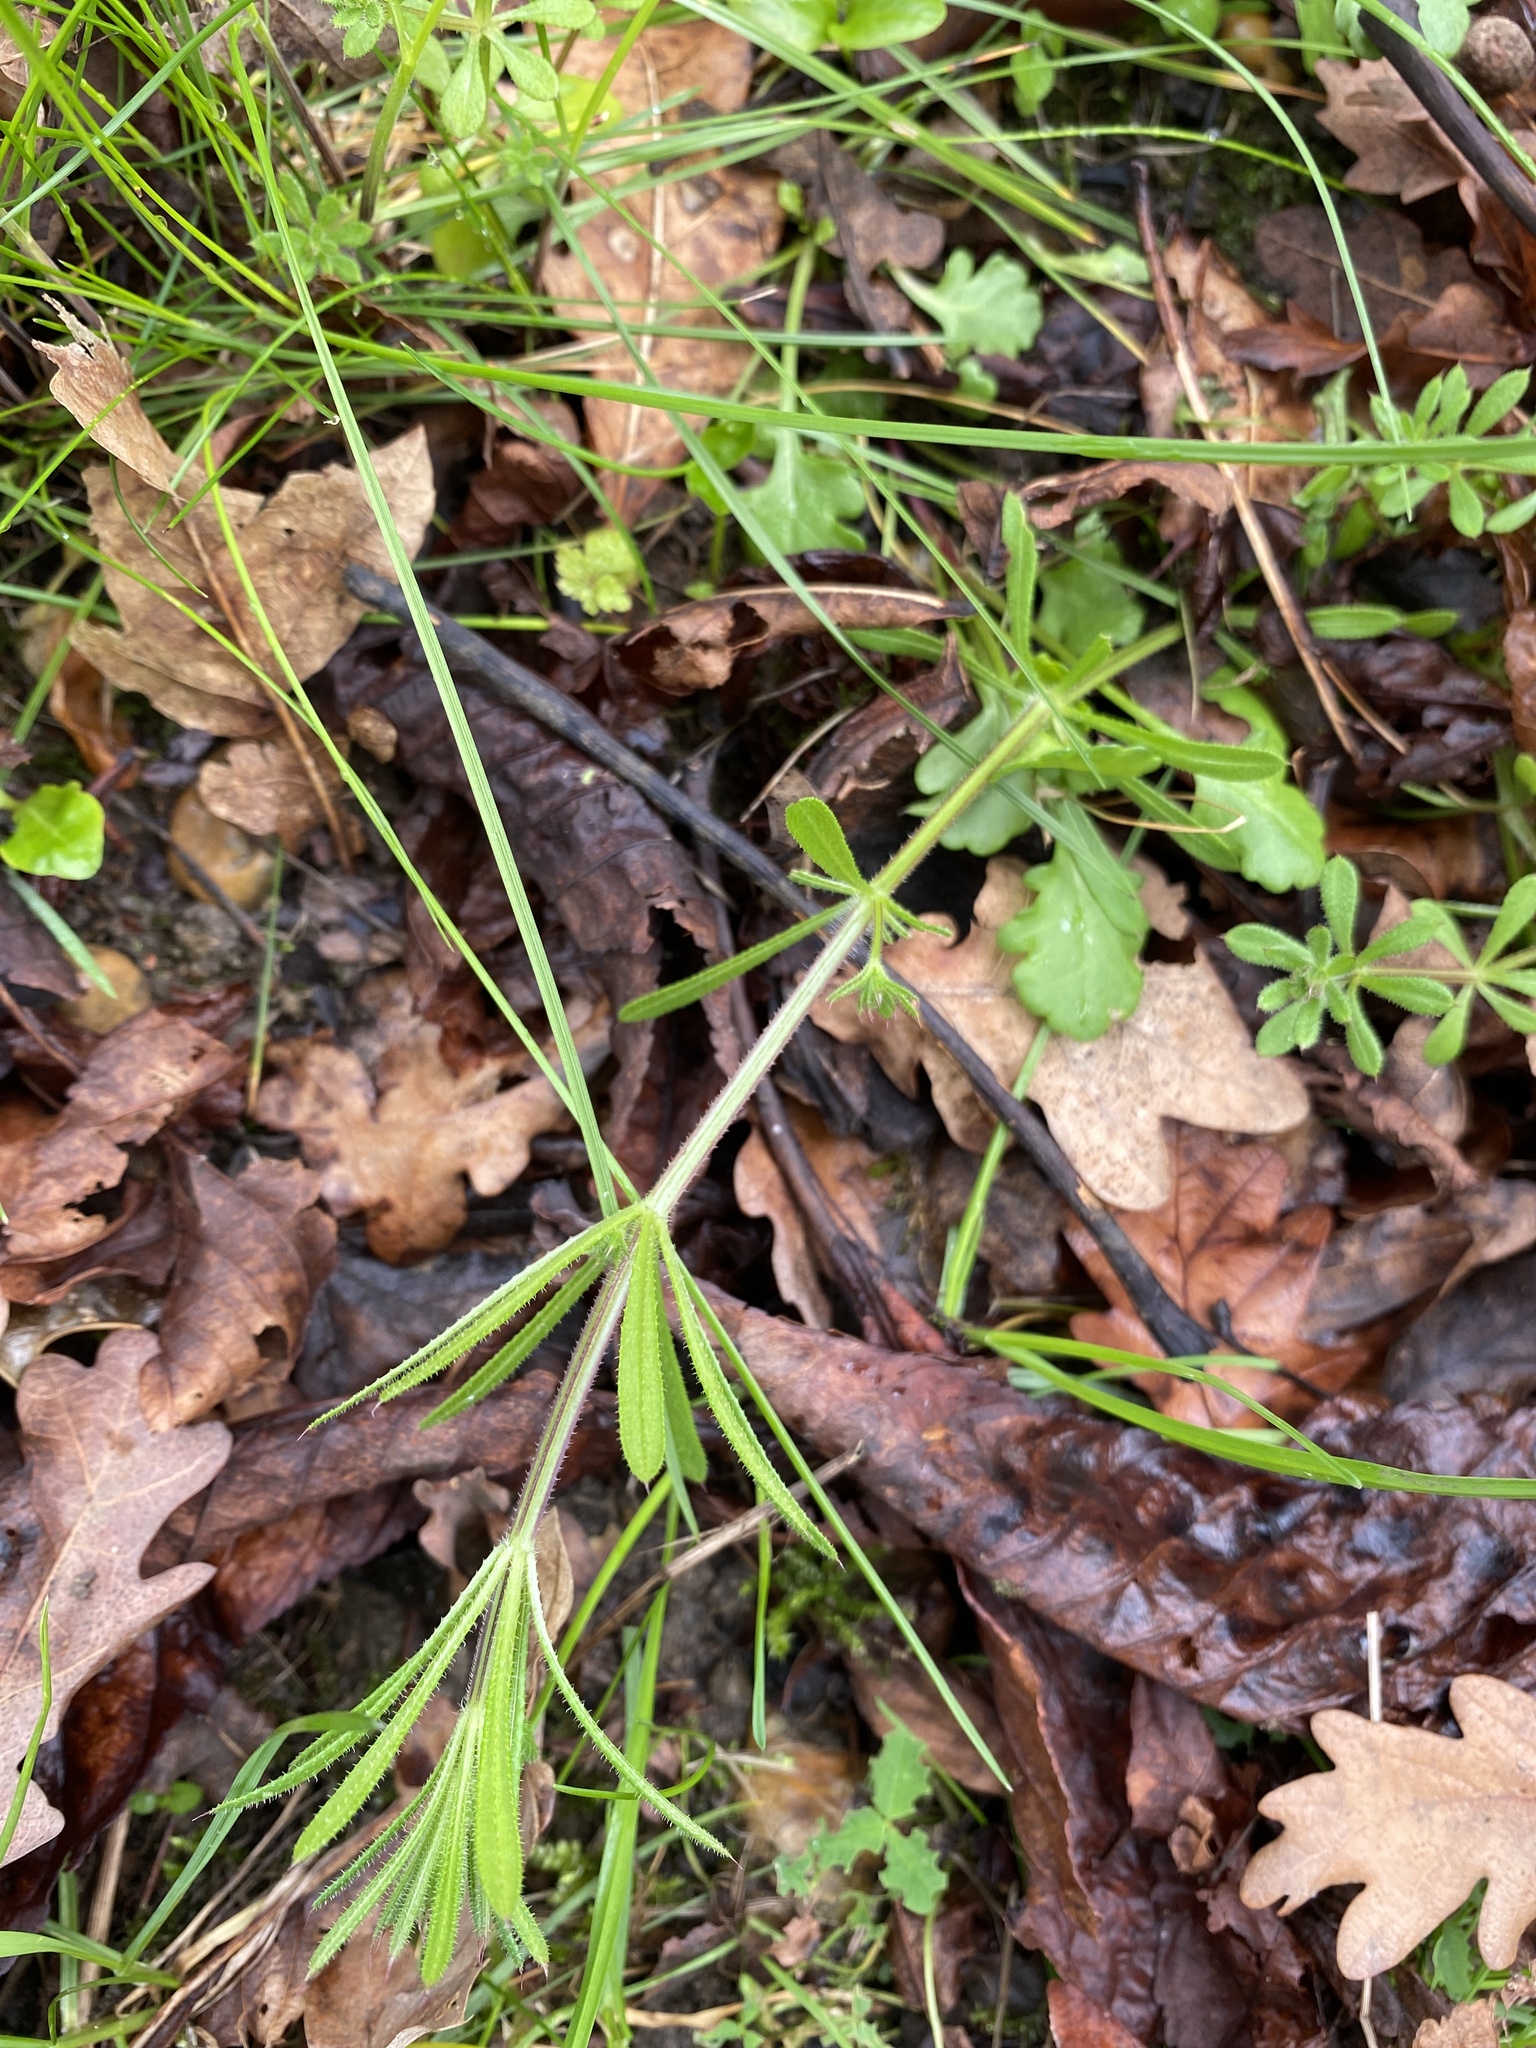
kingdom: Plantae
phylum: Tracheophyta
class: Magnoliopsida
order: Gentianales
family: Rubiaceae
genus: Galium
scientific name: Galium aparine
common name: Cleavers
